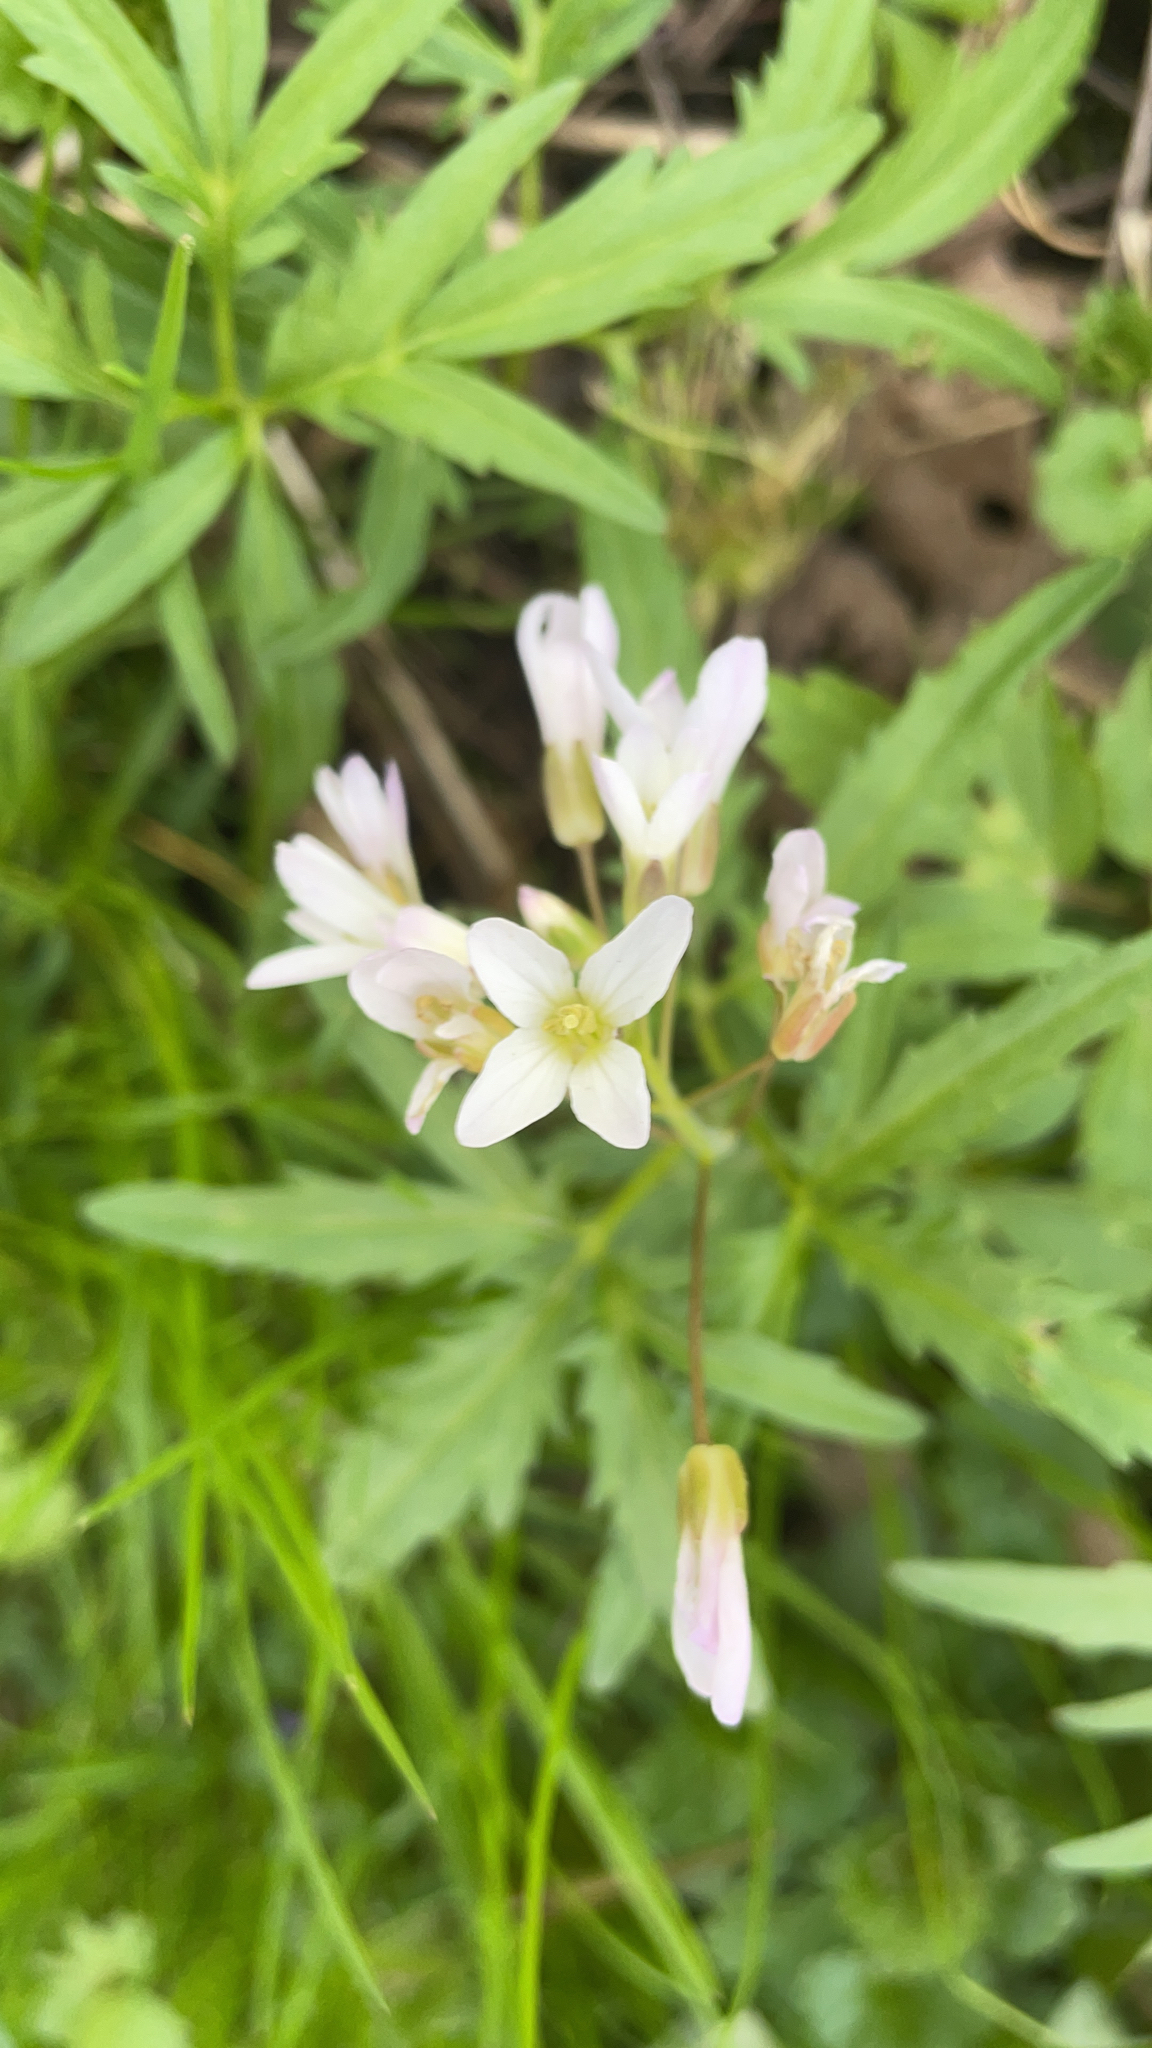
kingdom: Plantae
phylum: Tracheophyta
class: Magnoliopsida
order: Brassicales
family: Brassicaceae
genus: Cardamine
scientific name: Cardamine concatenata
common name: Cut-leaf toothcup
